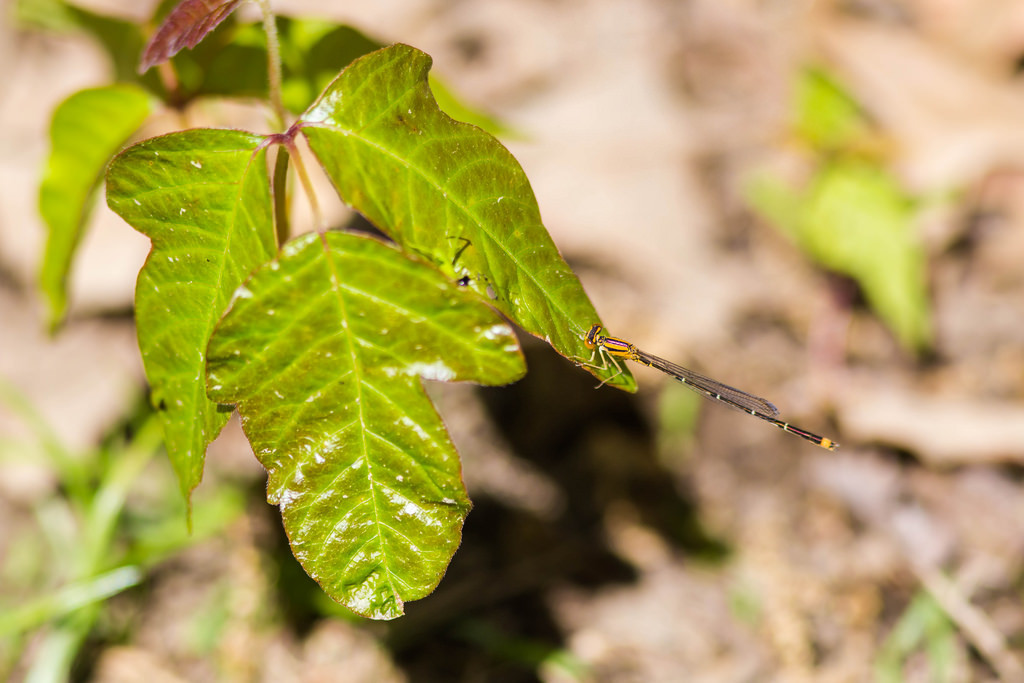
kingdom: Animalia
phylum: Arthropoda
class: Insecta
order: Odonata
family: Coenagrionidae
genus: Enallagma
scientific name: Enallagma signatum
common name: Orange bluet
